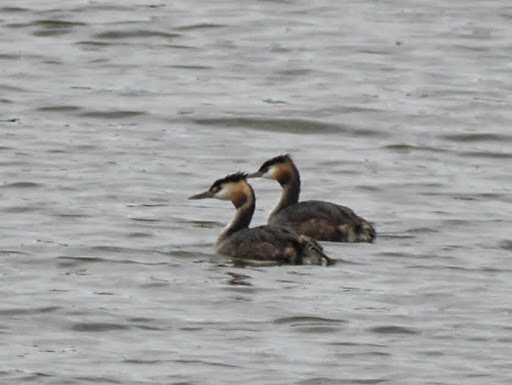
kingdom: Animalia
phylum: Chordata
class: Aves
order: Podicipediformes
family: Podicipedidae
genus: Podiceps
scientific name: Podiceps cristatus
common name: Great crested grebe
